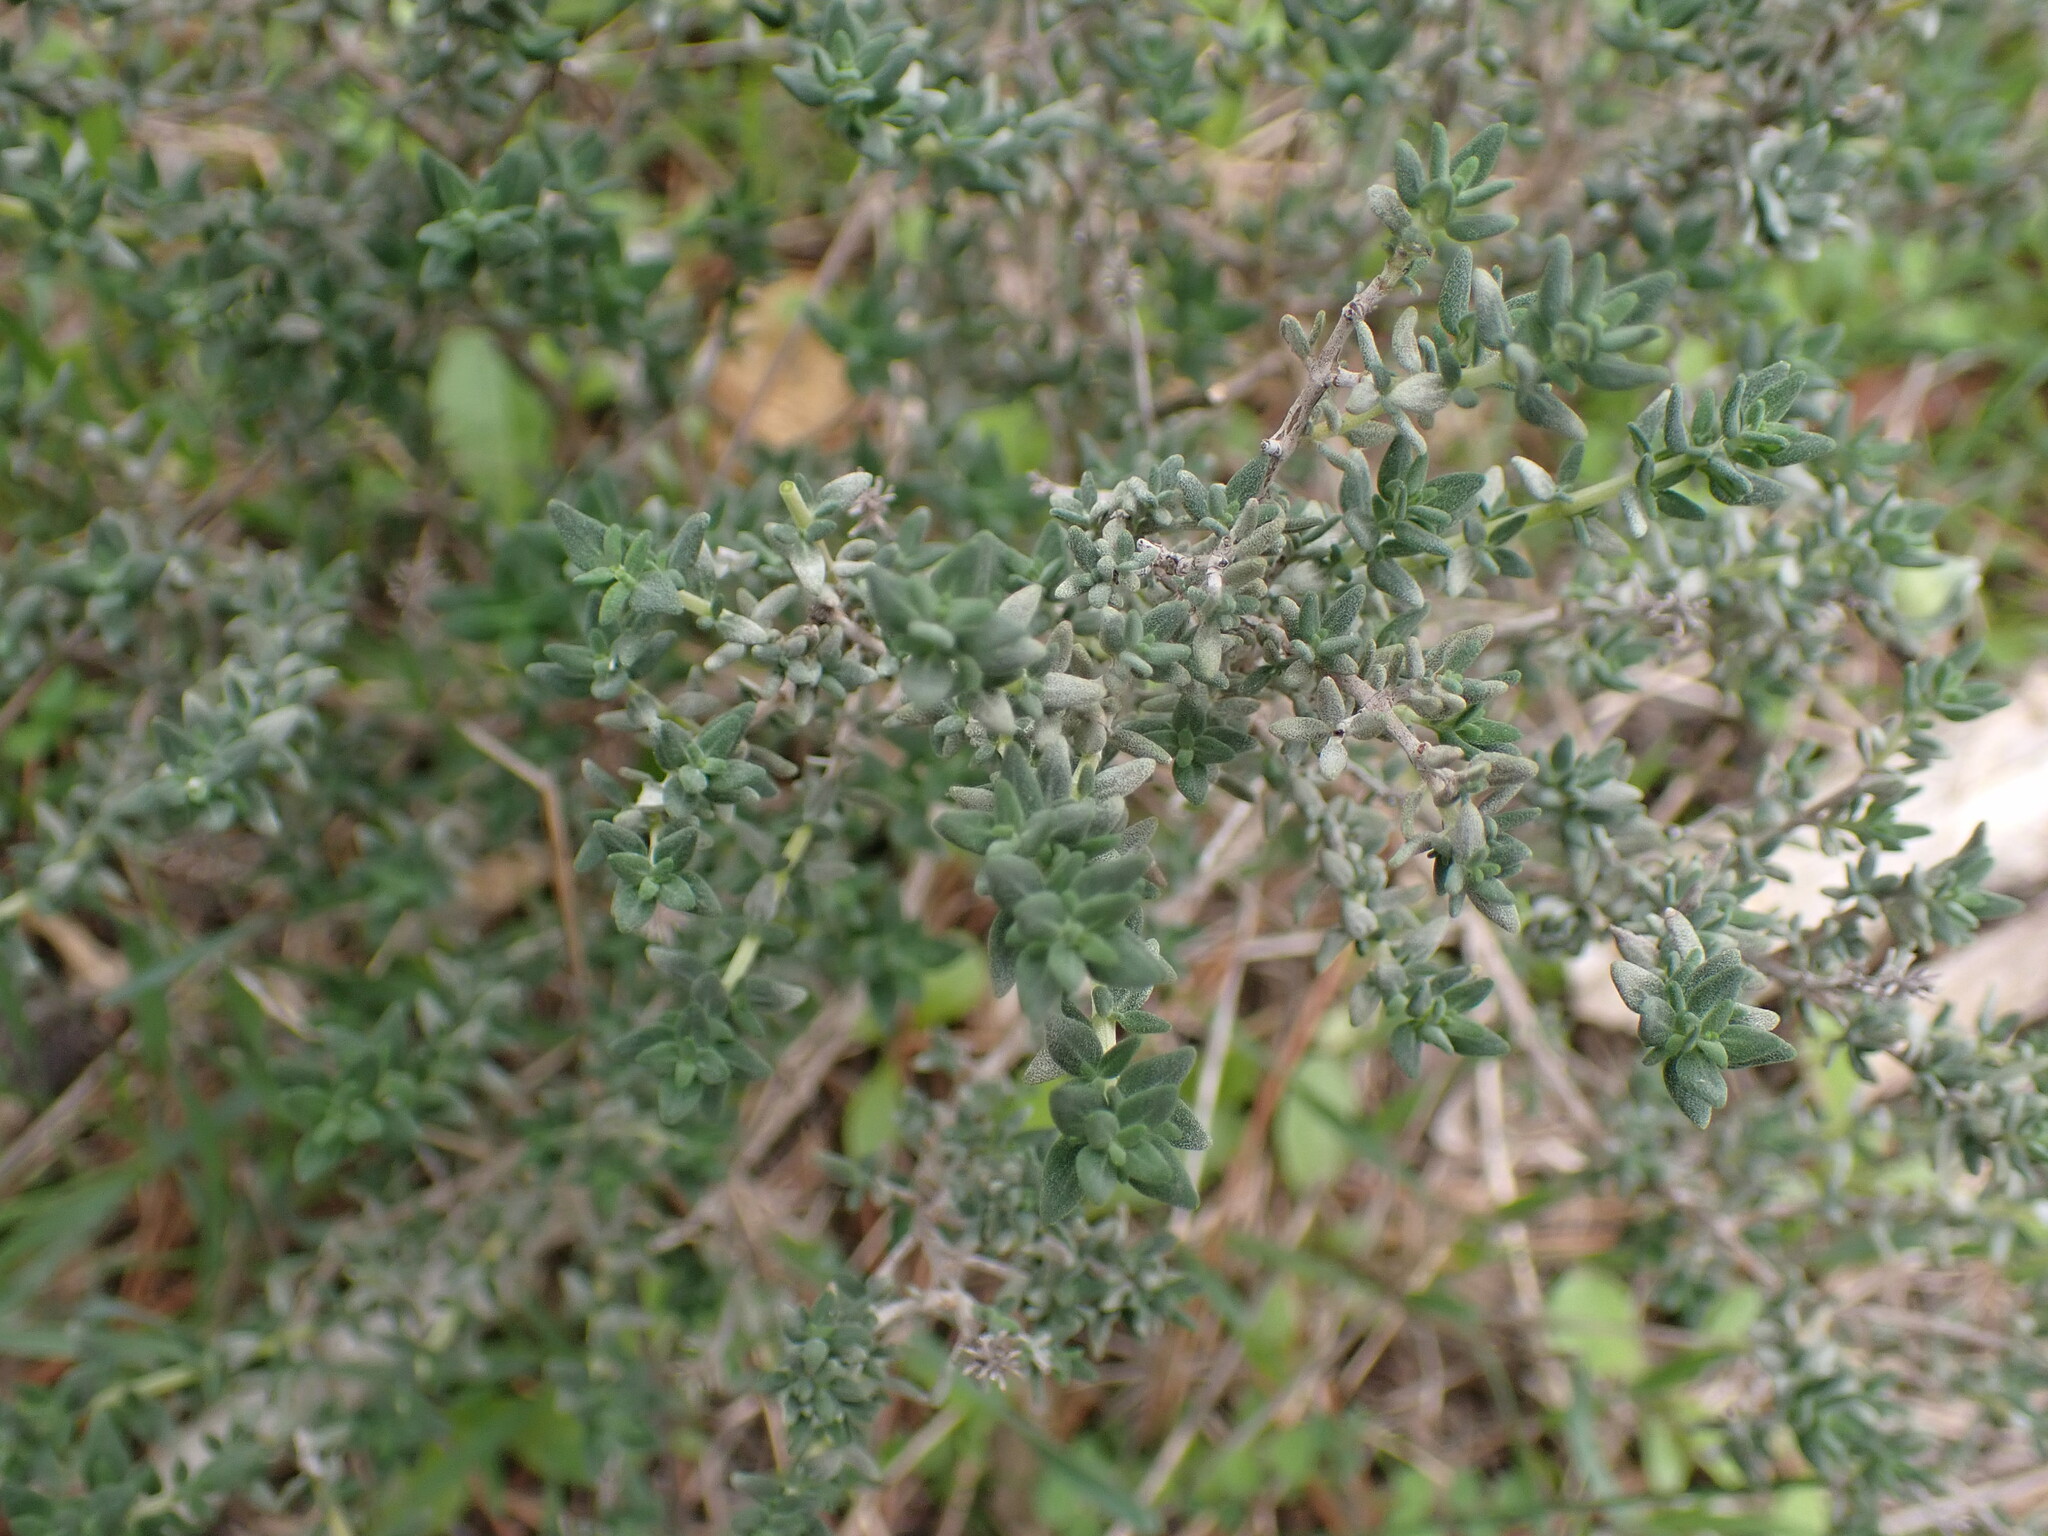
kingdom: Plantae
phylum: Tracheophyta
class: Magnoliopsida
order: Lamiales
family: Lamiaceae
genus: Thymus
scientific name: Thymus vulgaris
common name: Garden thyme
